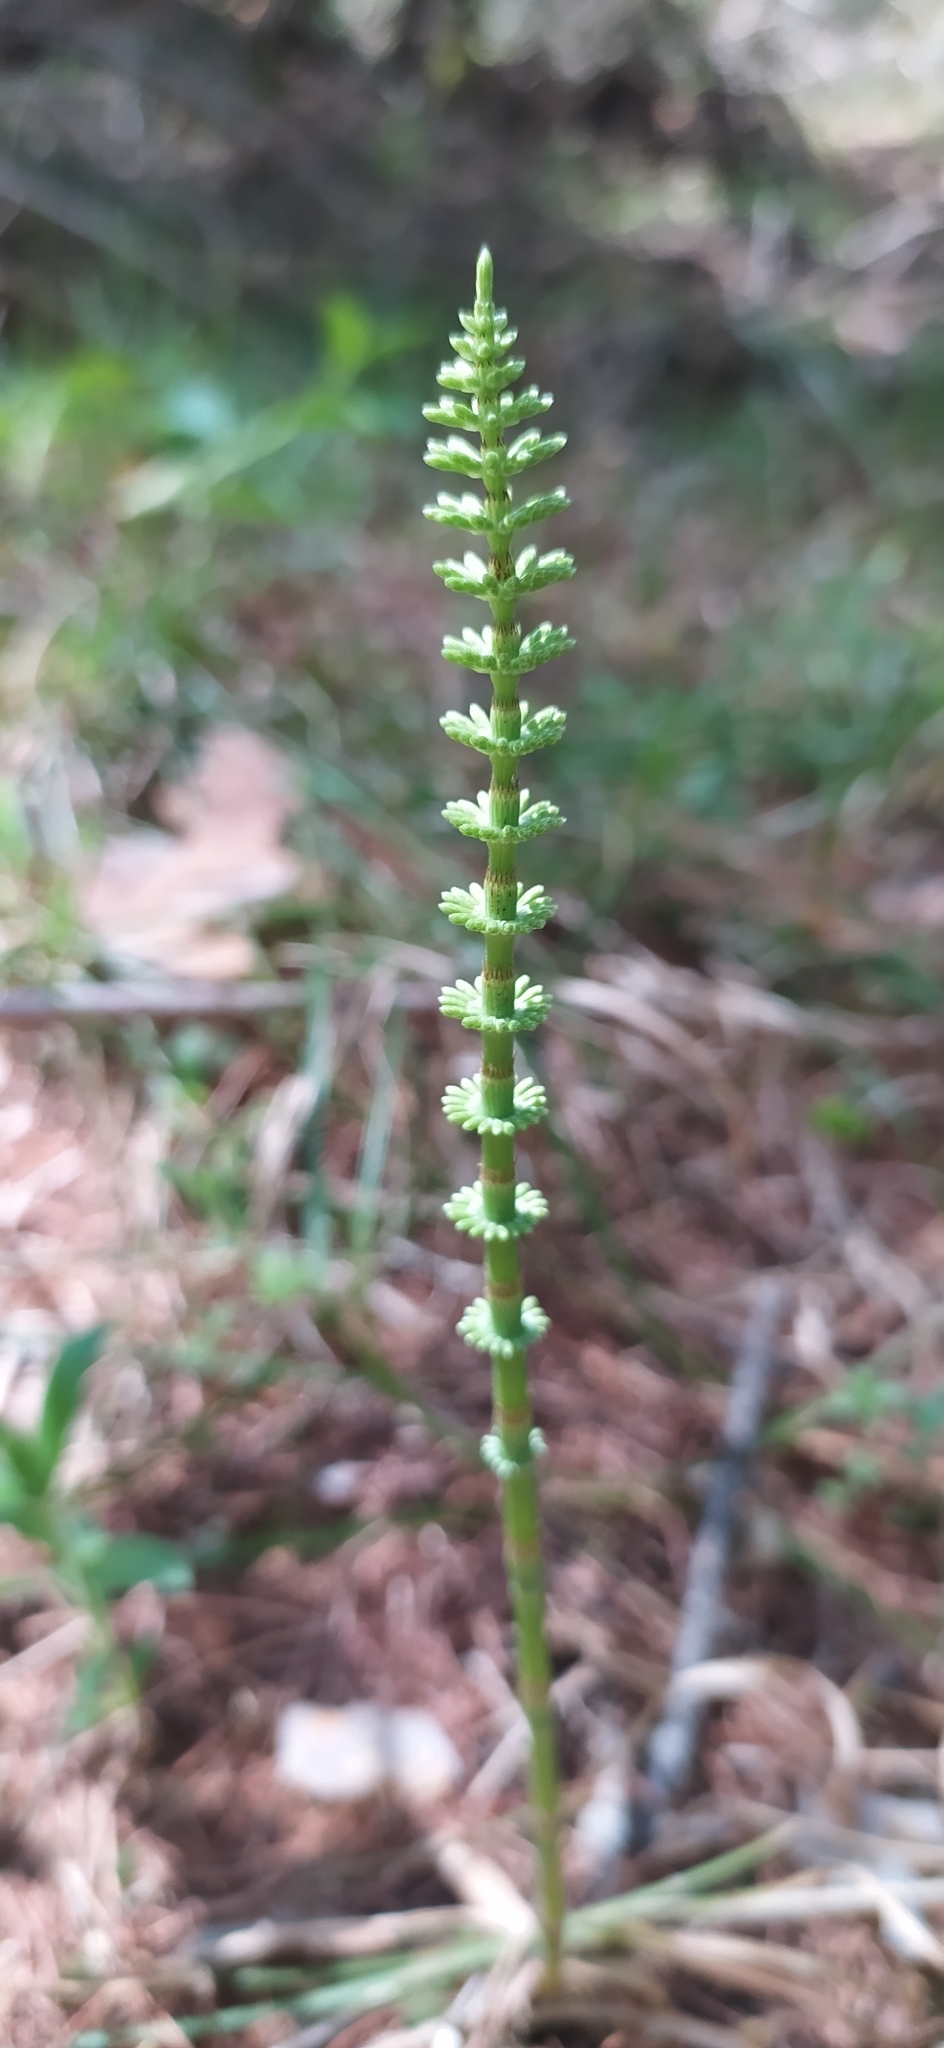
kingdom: Plantae
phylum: Tracheophyta
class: Polypodiopsida
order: Equisetales
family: Equisetaceae
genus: Equisetum
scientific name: Equisetum pratense
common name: Meadow horsetail
